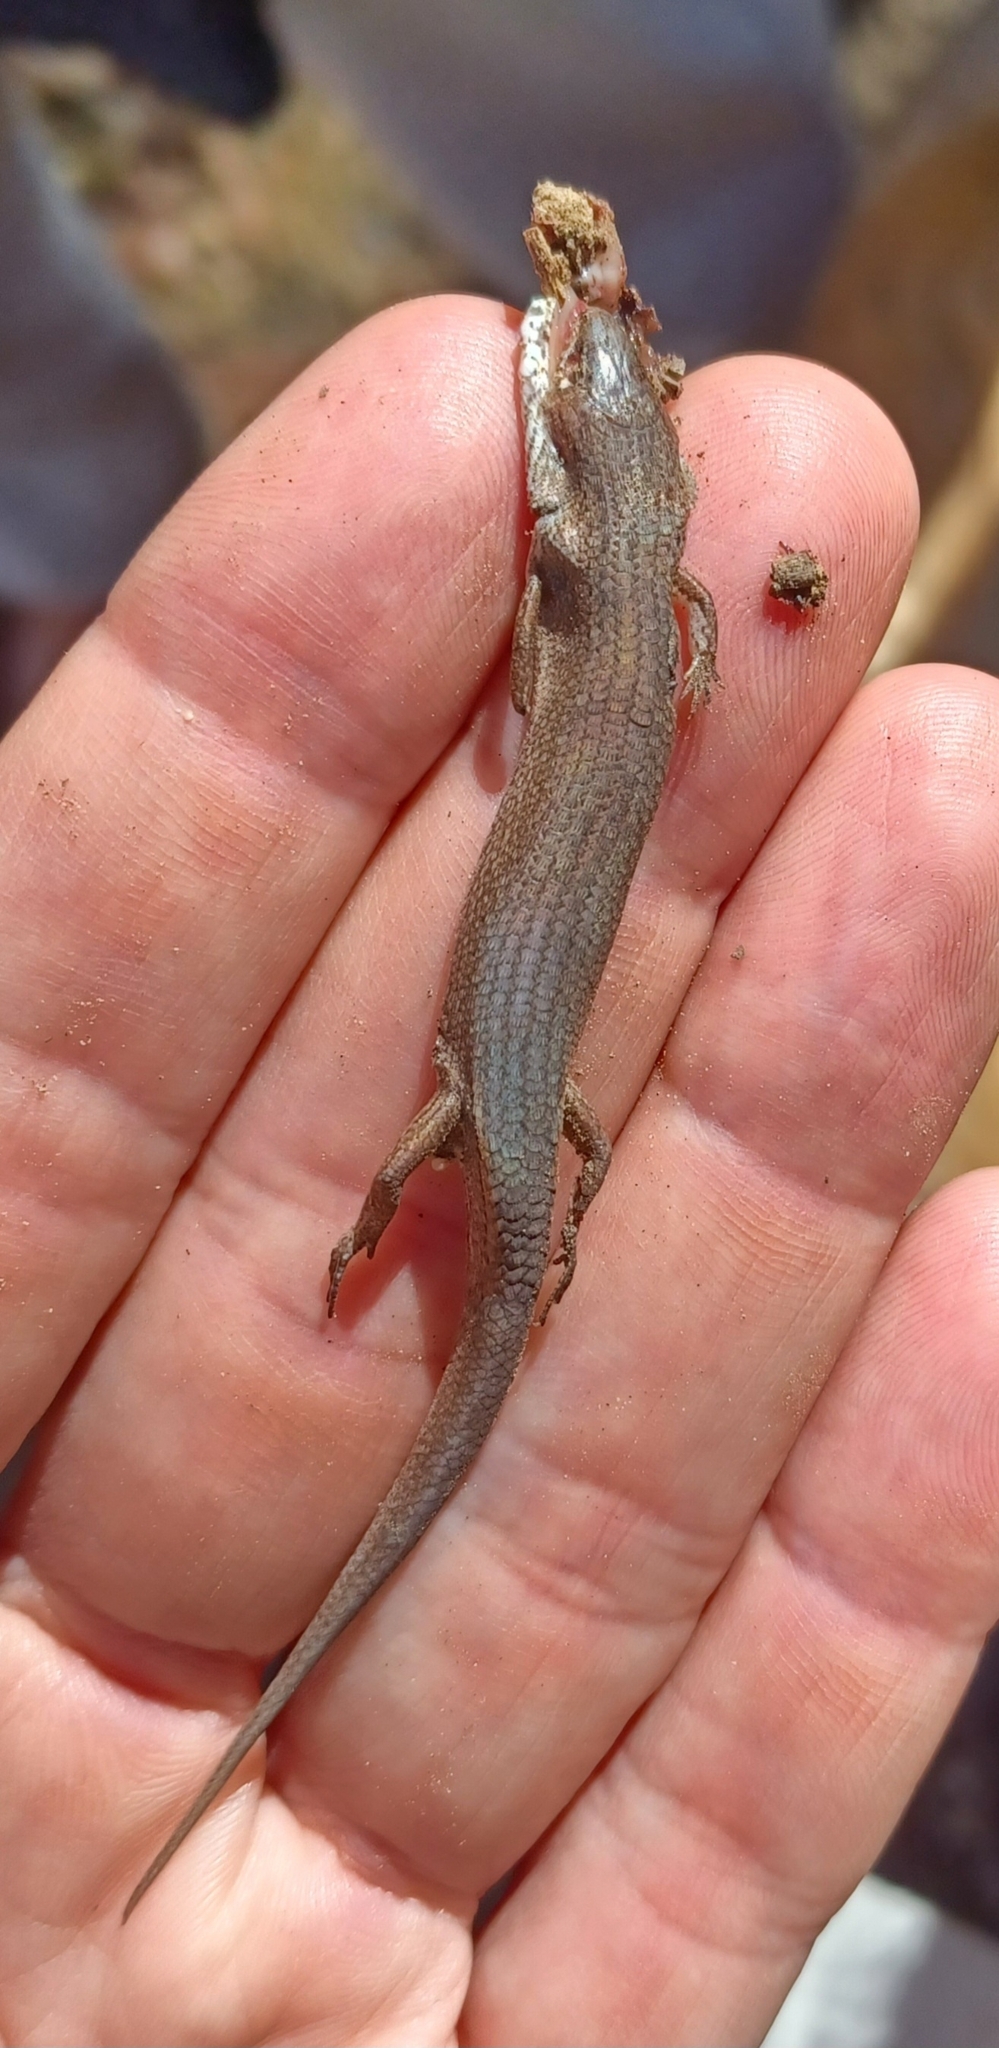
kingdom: Animalia
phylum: Chordata
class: Squamata
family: Scincidae
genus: Saproscincus
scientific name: Saproscincus mustelinus
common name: Southern weasel skink
